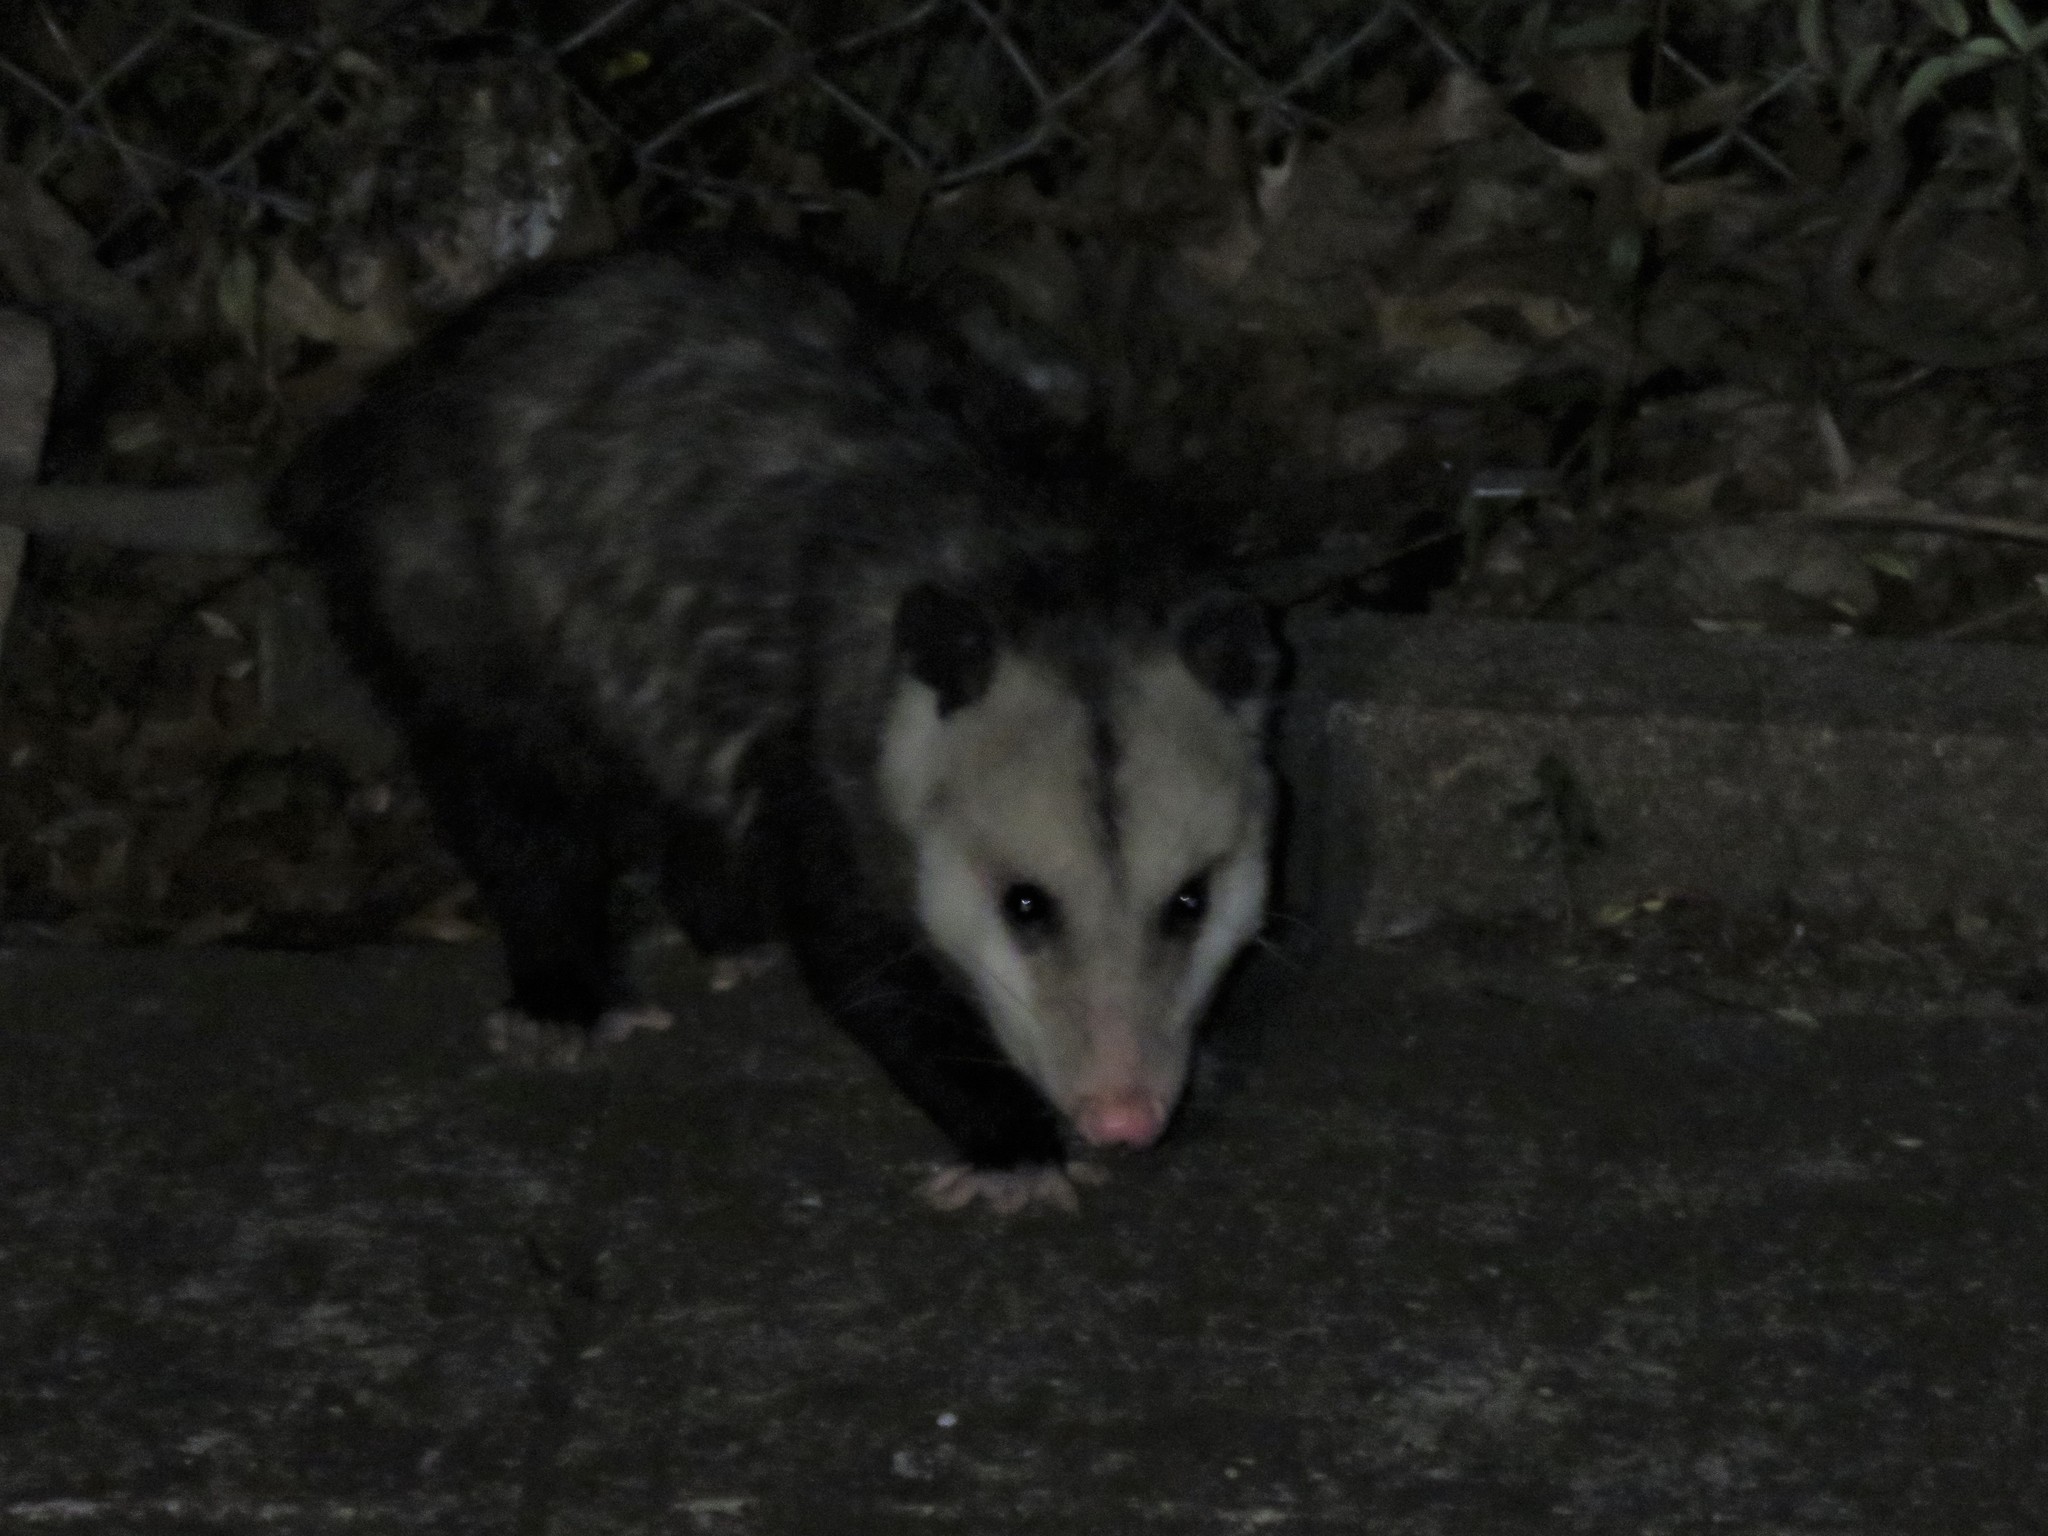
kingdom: Animalia
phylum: Chordata
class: Mammalia
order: Didelphimorphia
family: Didelphidae
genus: Didelphis
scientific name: Didelphis virginiana
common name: Virginia opossum
